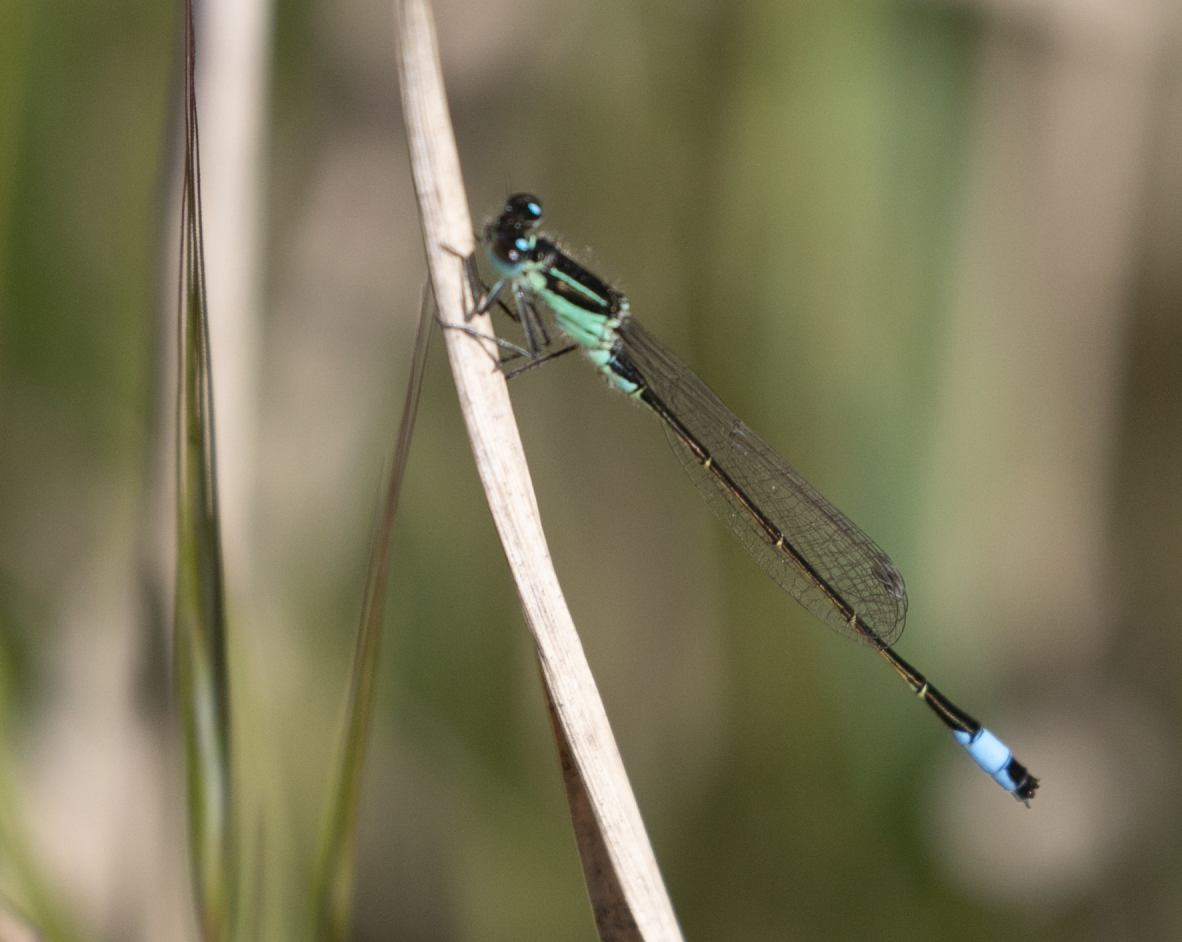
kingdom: Animalia
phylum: Arthropoda
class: Insecta
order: Odonata
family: Coenagrionidae
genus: Ischnura
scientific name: Ischnura elegans
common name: Blue-tailed damselfly
